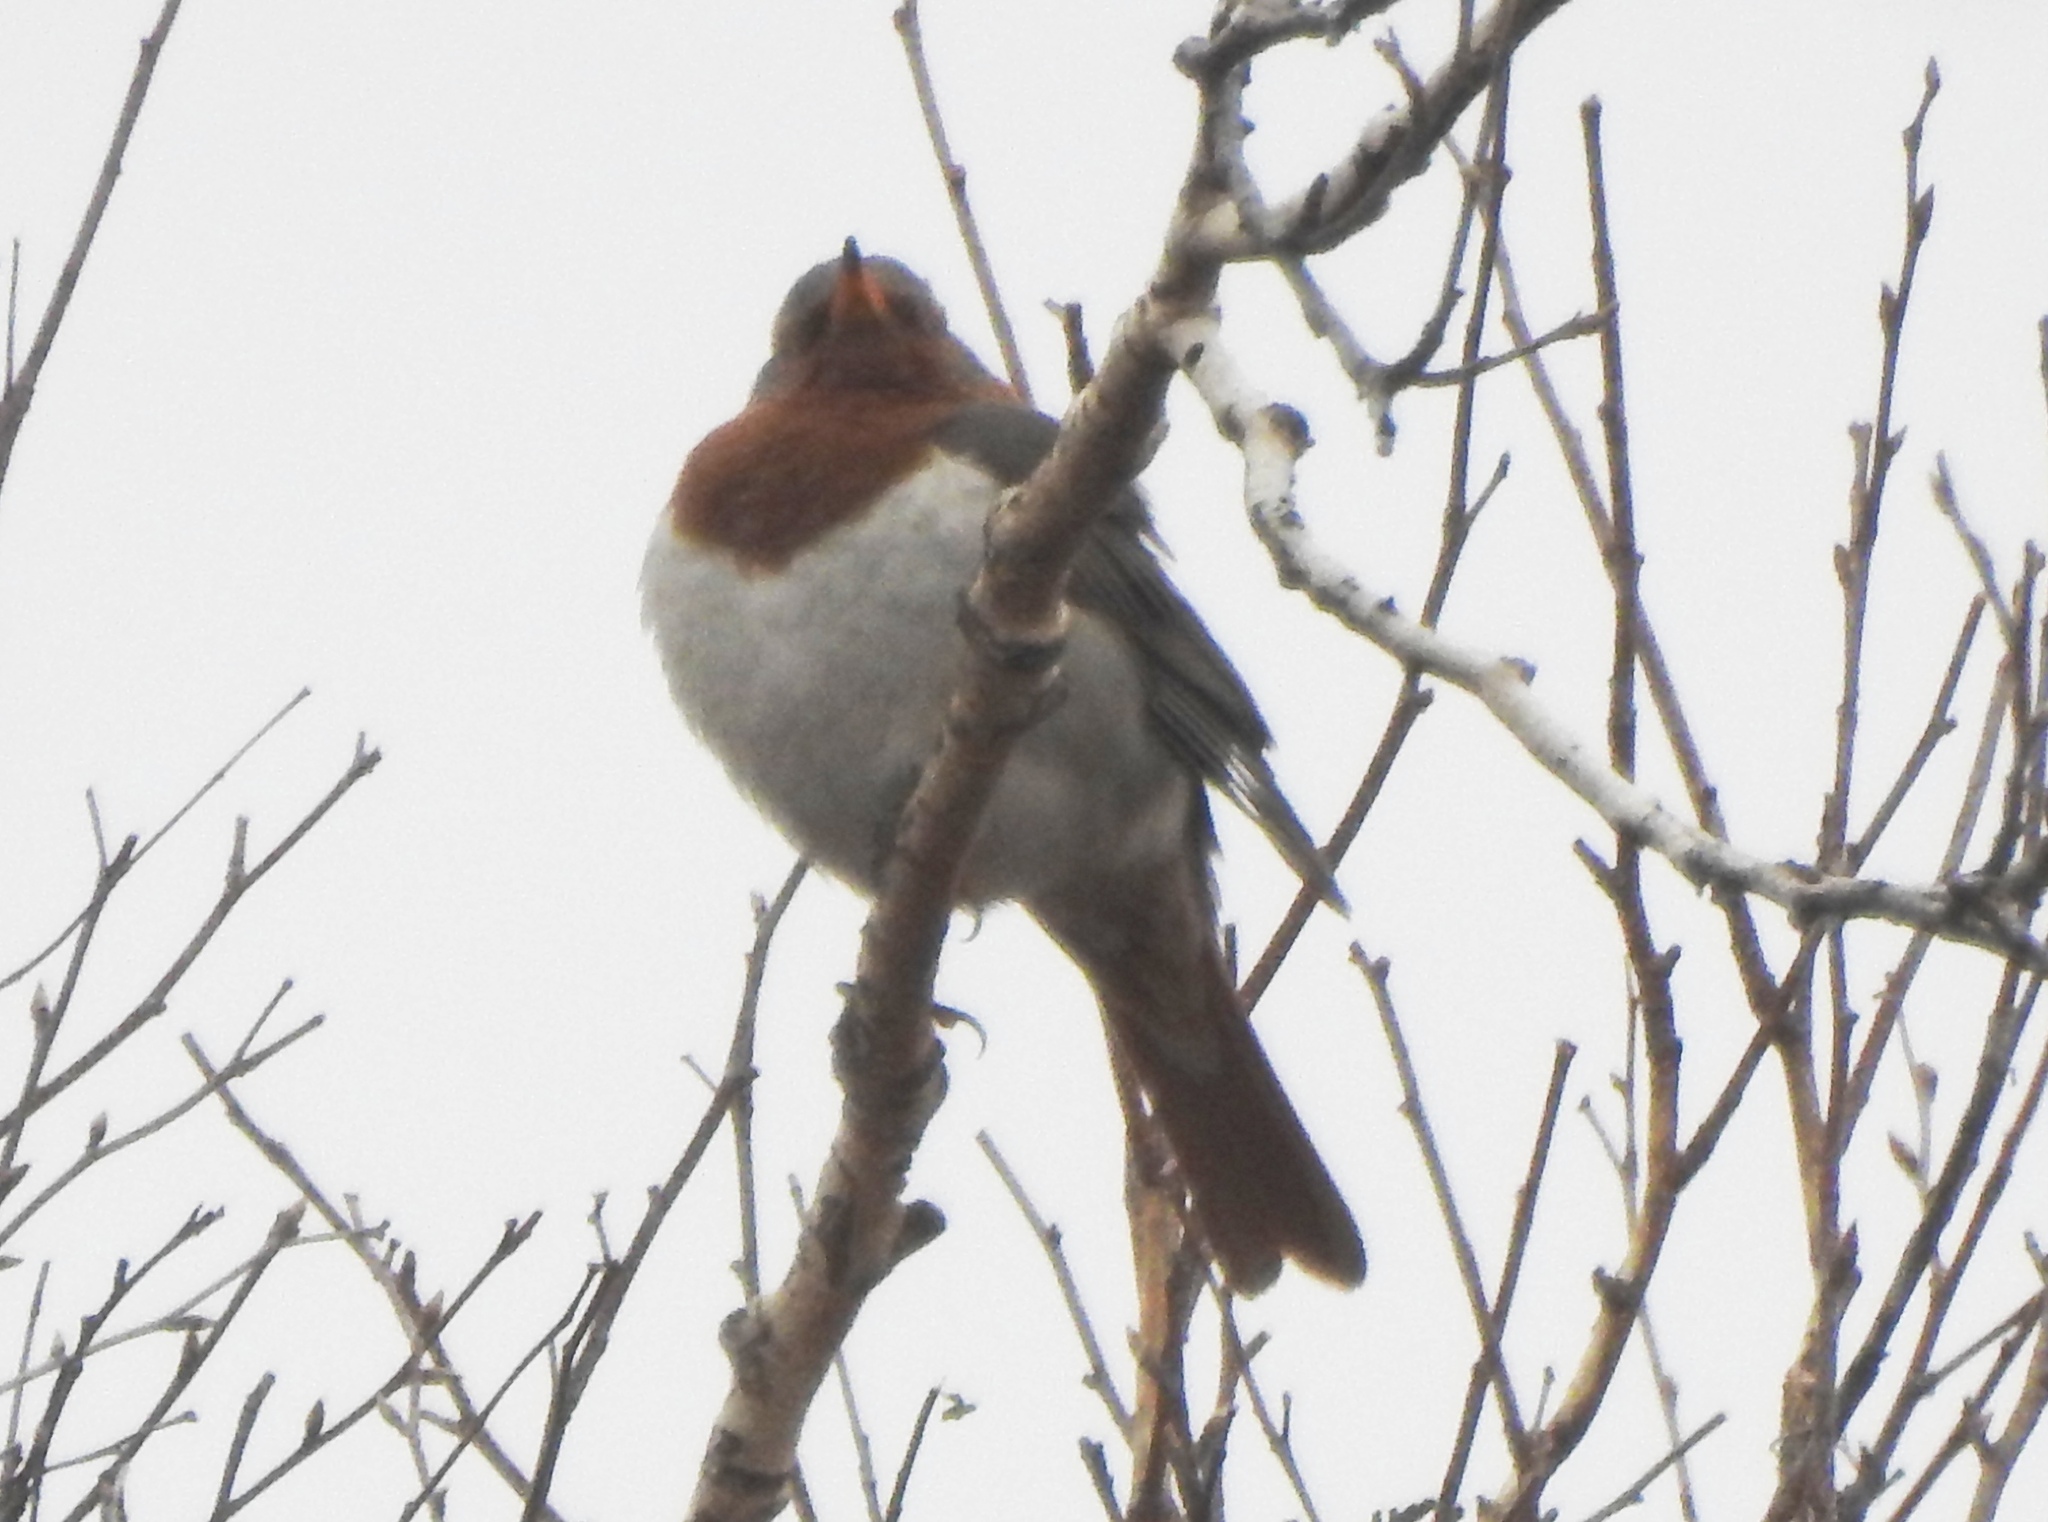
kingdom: Animalia
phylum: Chordata
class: Aves
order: Passeriformes
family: Turdidae
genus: Turdus
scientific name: Turdus ruficollis
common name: Red-throated thrush
